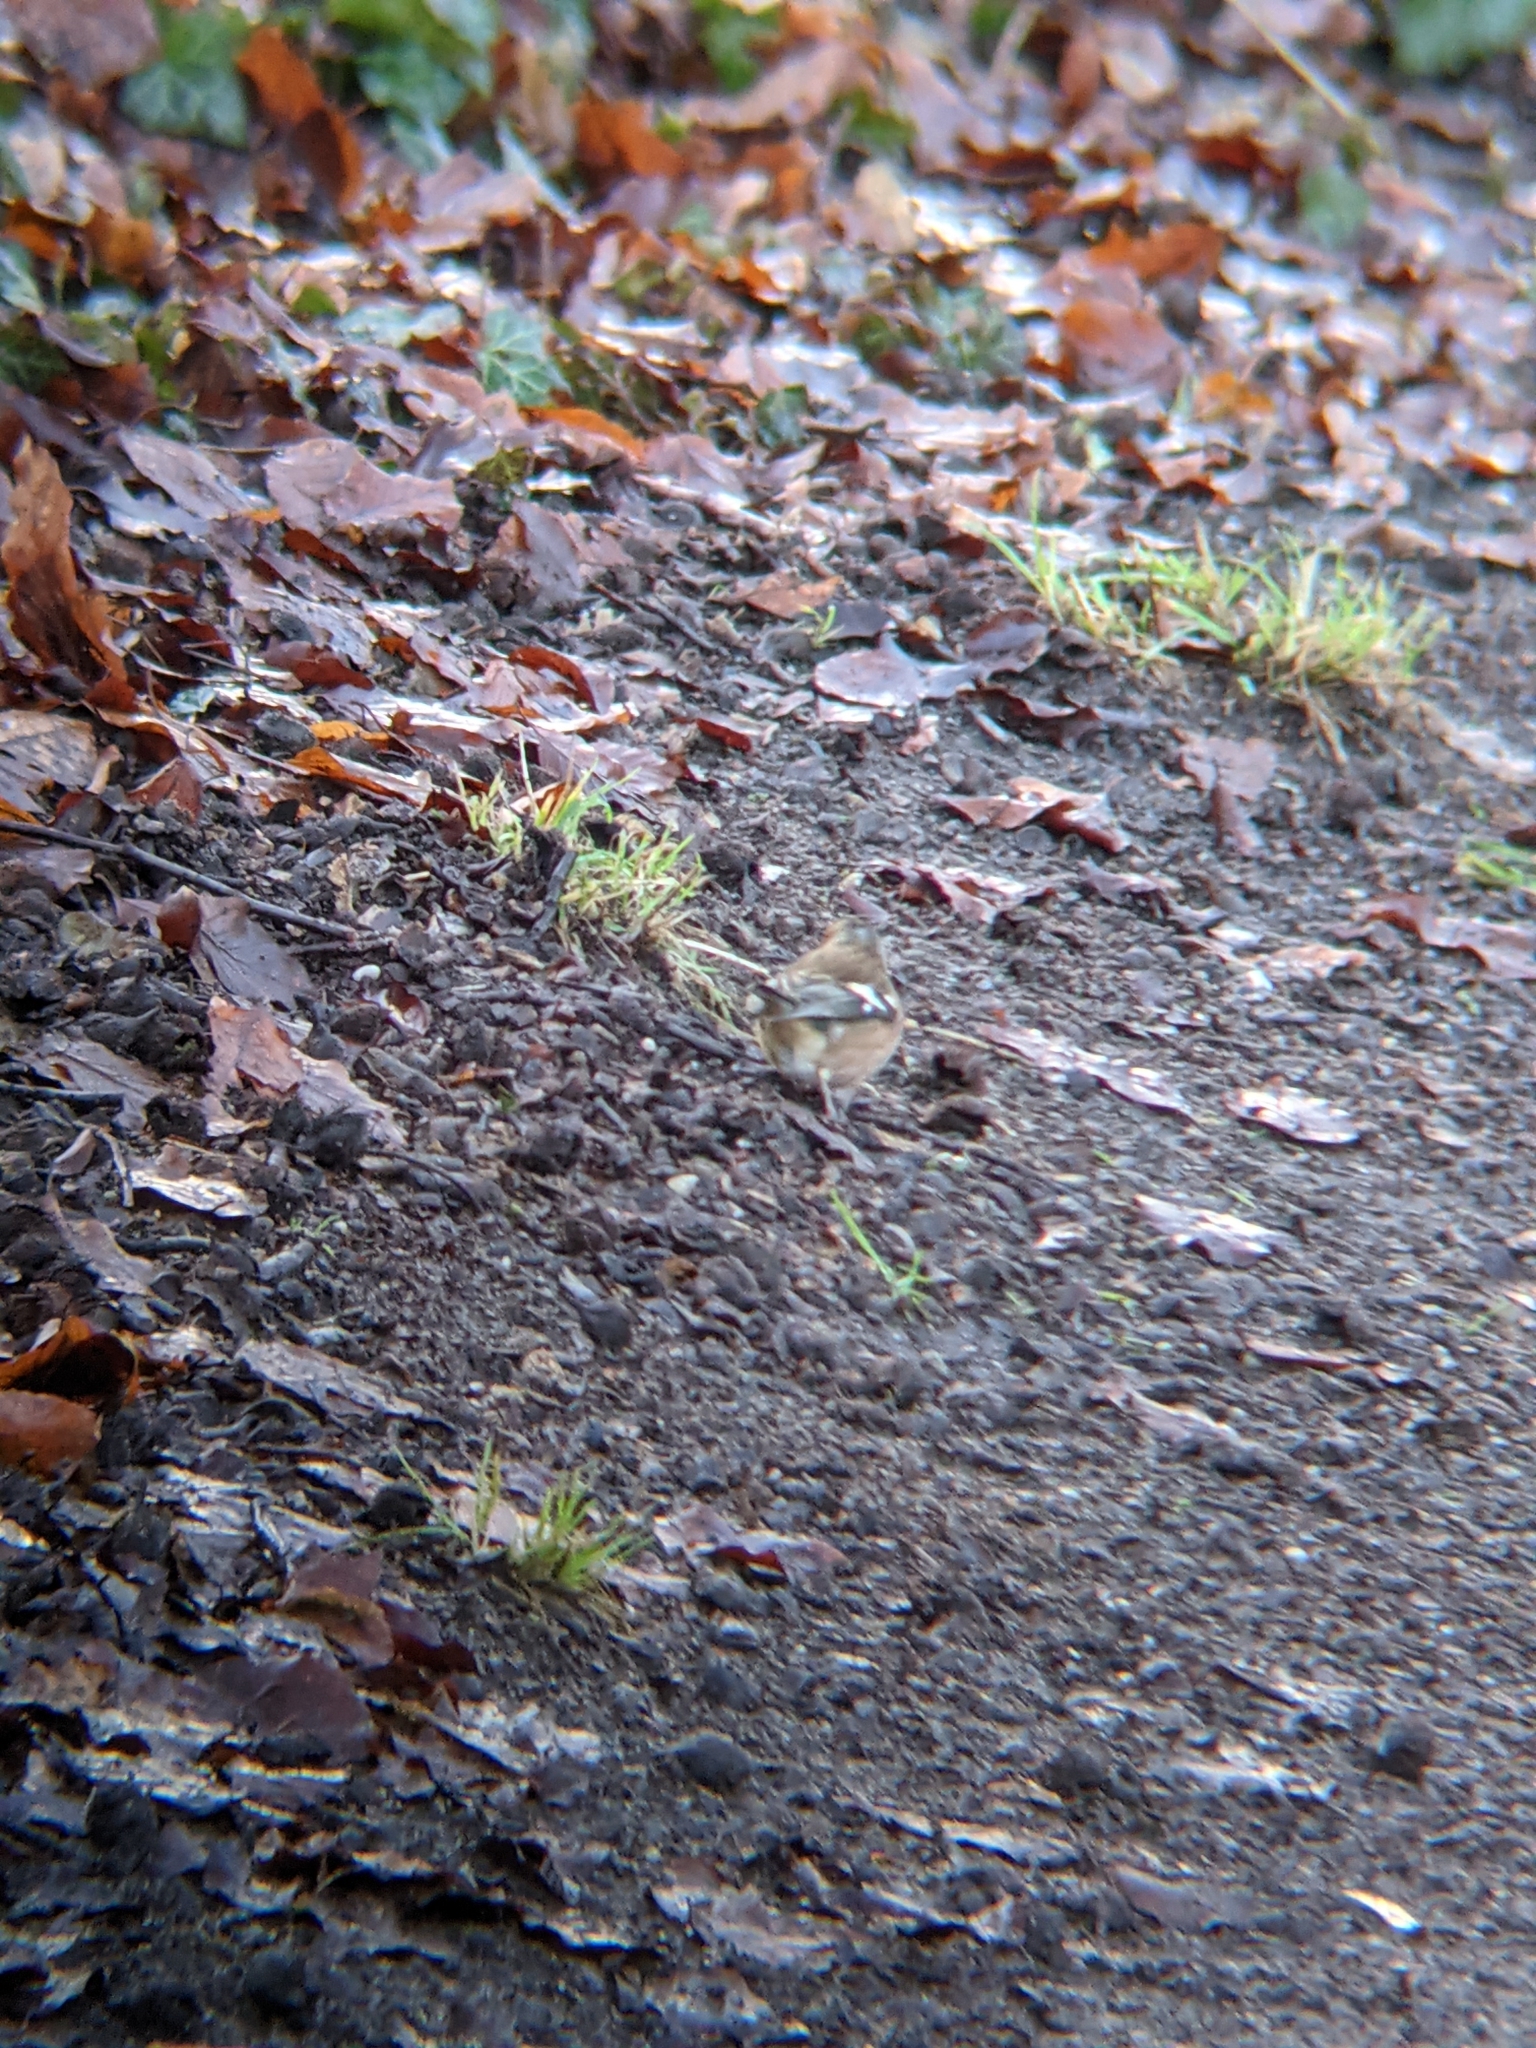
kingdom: Animalia
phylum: Chordata
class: Aves
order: Passeriformes
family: Fringillidae
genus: Fringilla
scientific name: Fringilla coelebs
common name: Common chaffinch
